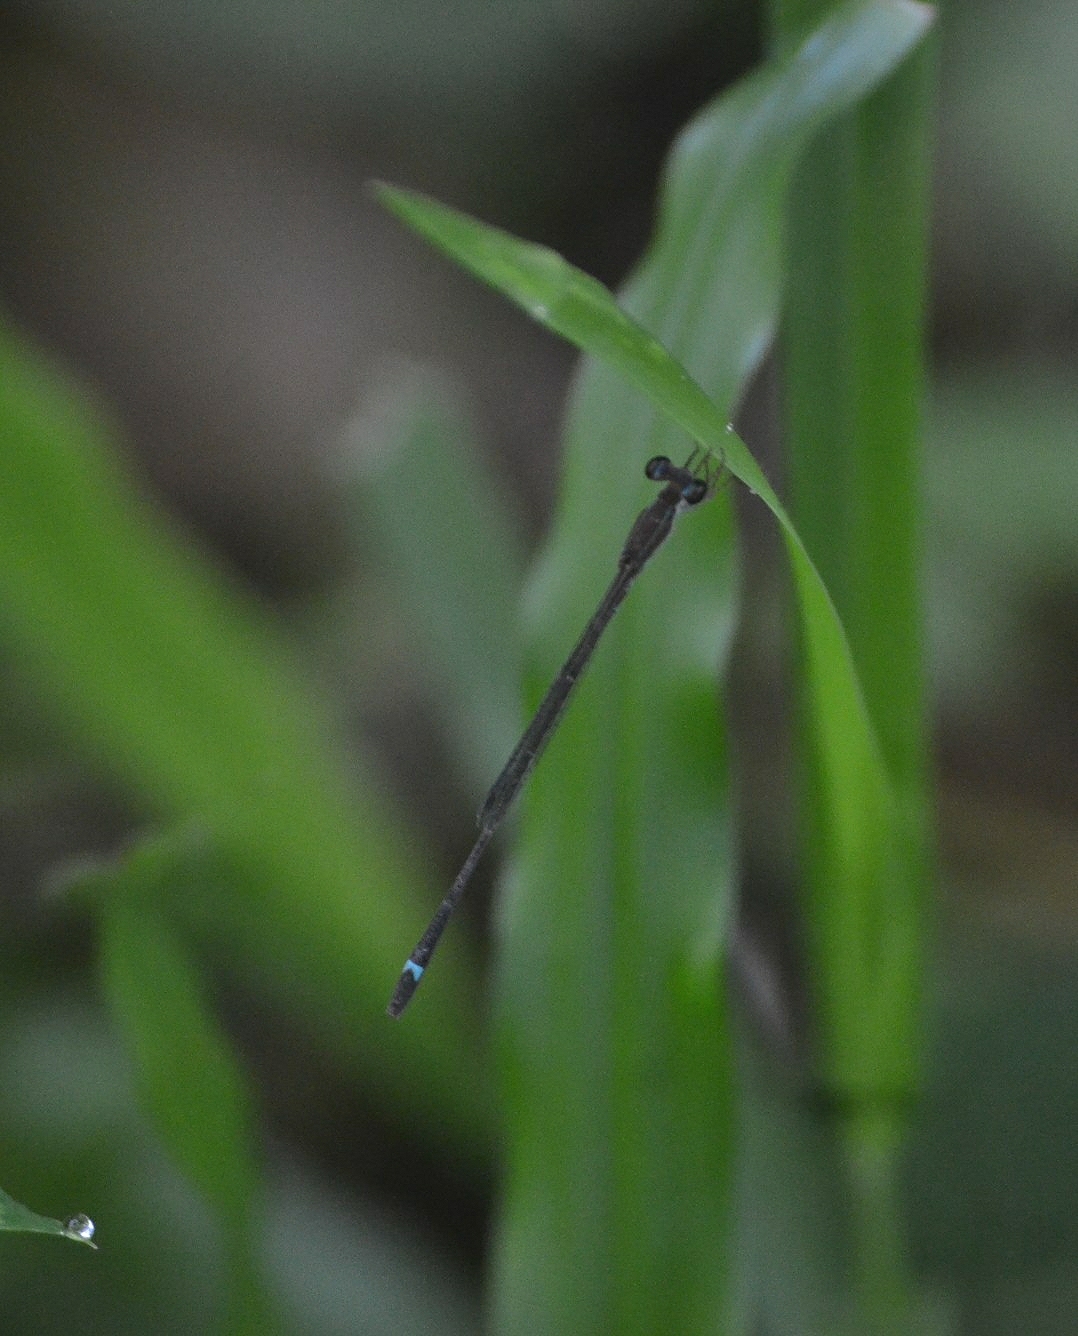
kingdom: Animalia
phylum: Arthropoda
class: Insecta
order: Odonata
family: Coenagrionidae
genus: Mortonagrion
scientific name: Mortonagrion varralli
